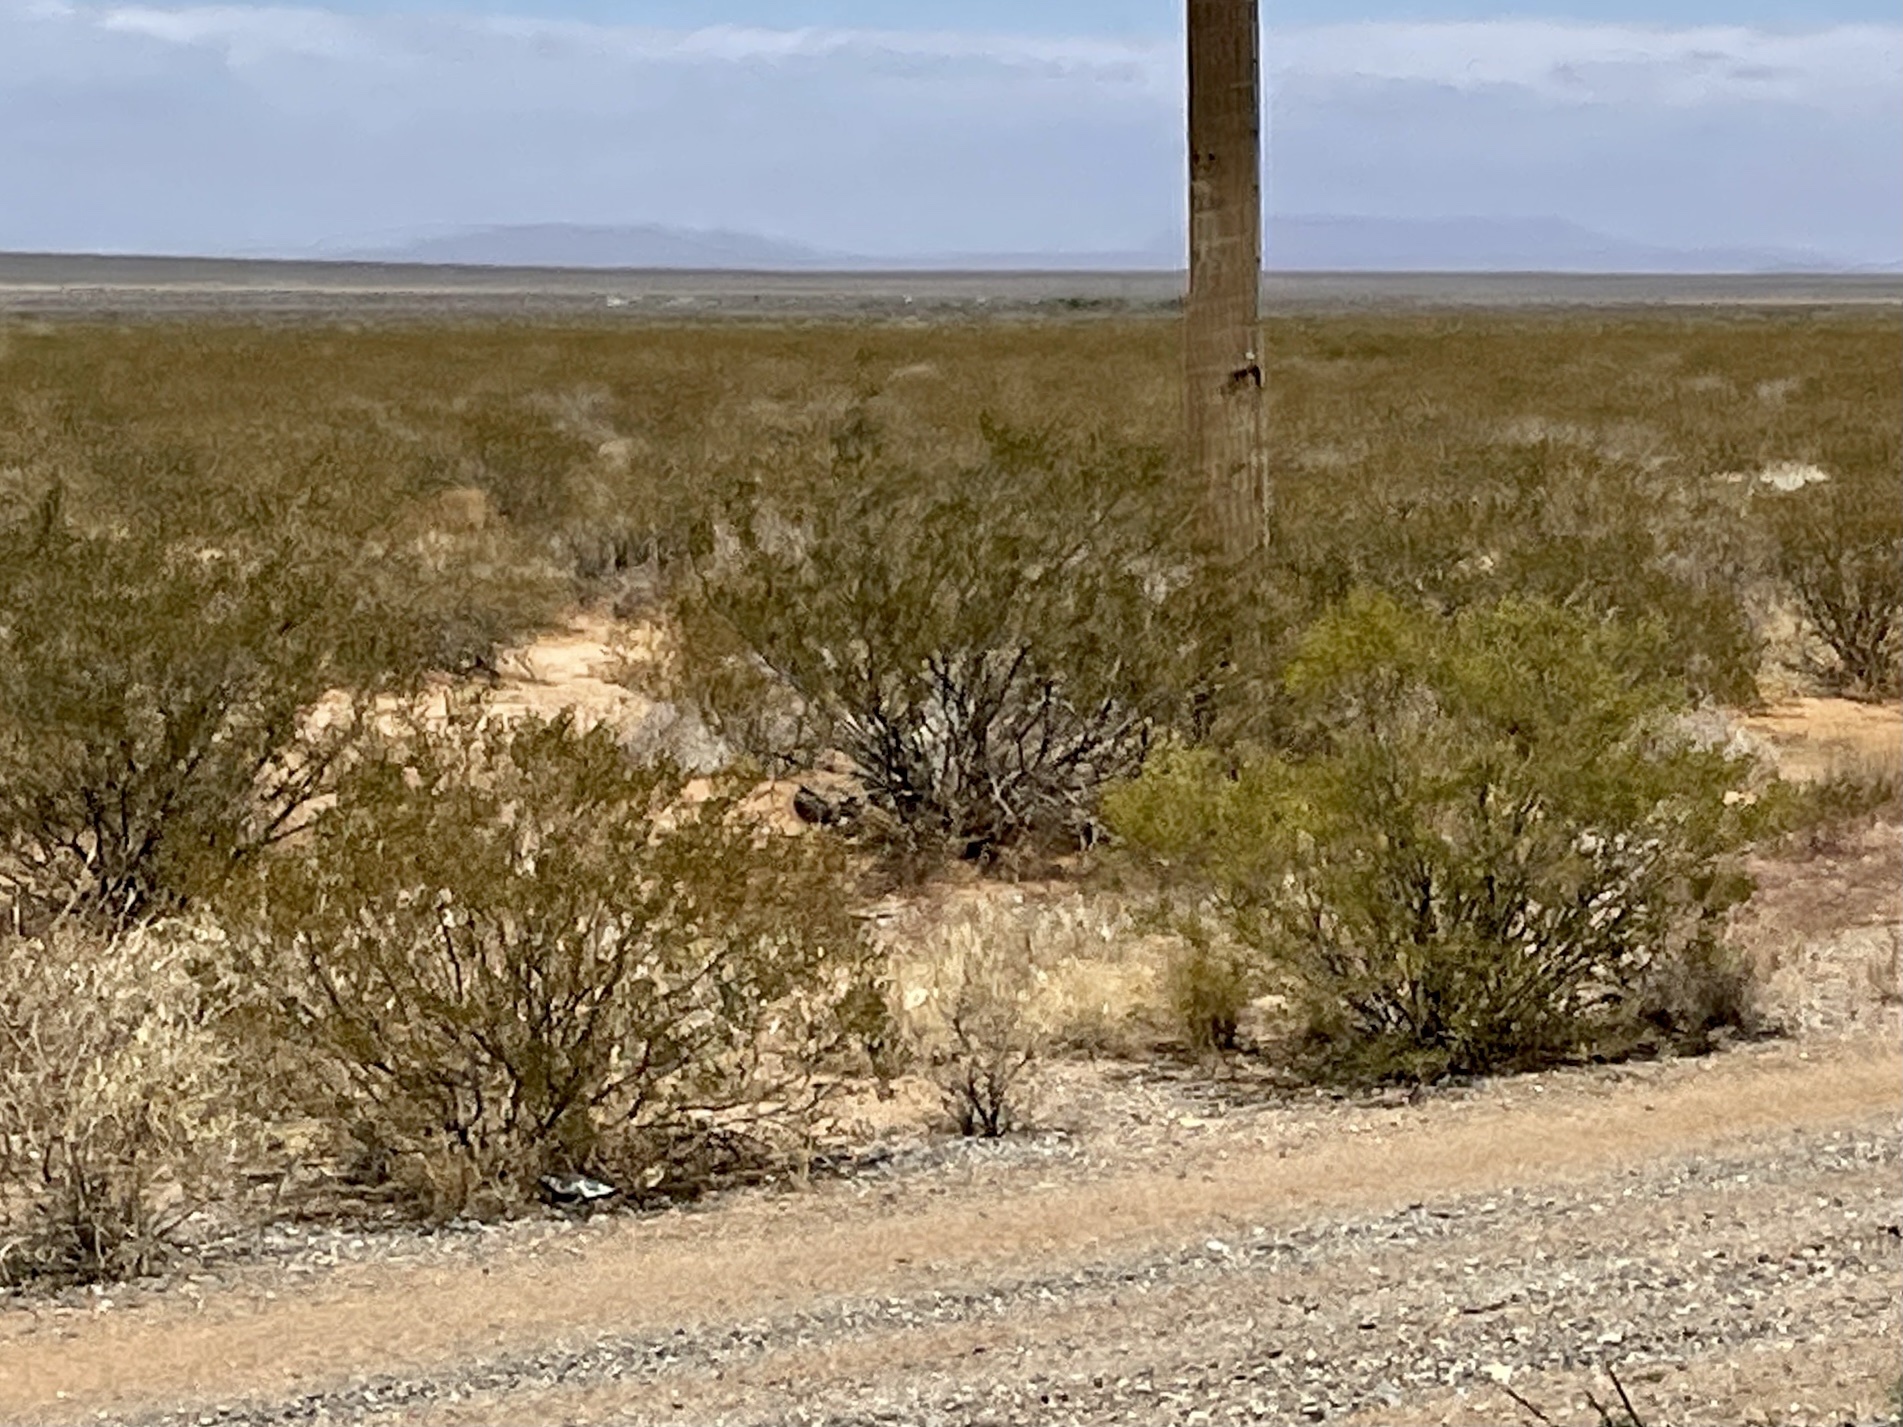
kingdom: Plantae
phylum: Tracheophyta
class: Magnoliopsida
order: Zygophyllales
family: Zygophyllaceae
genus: Larrea
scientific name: Larrea tridentata
